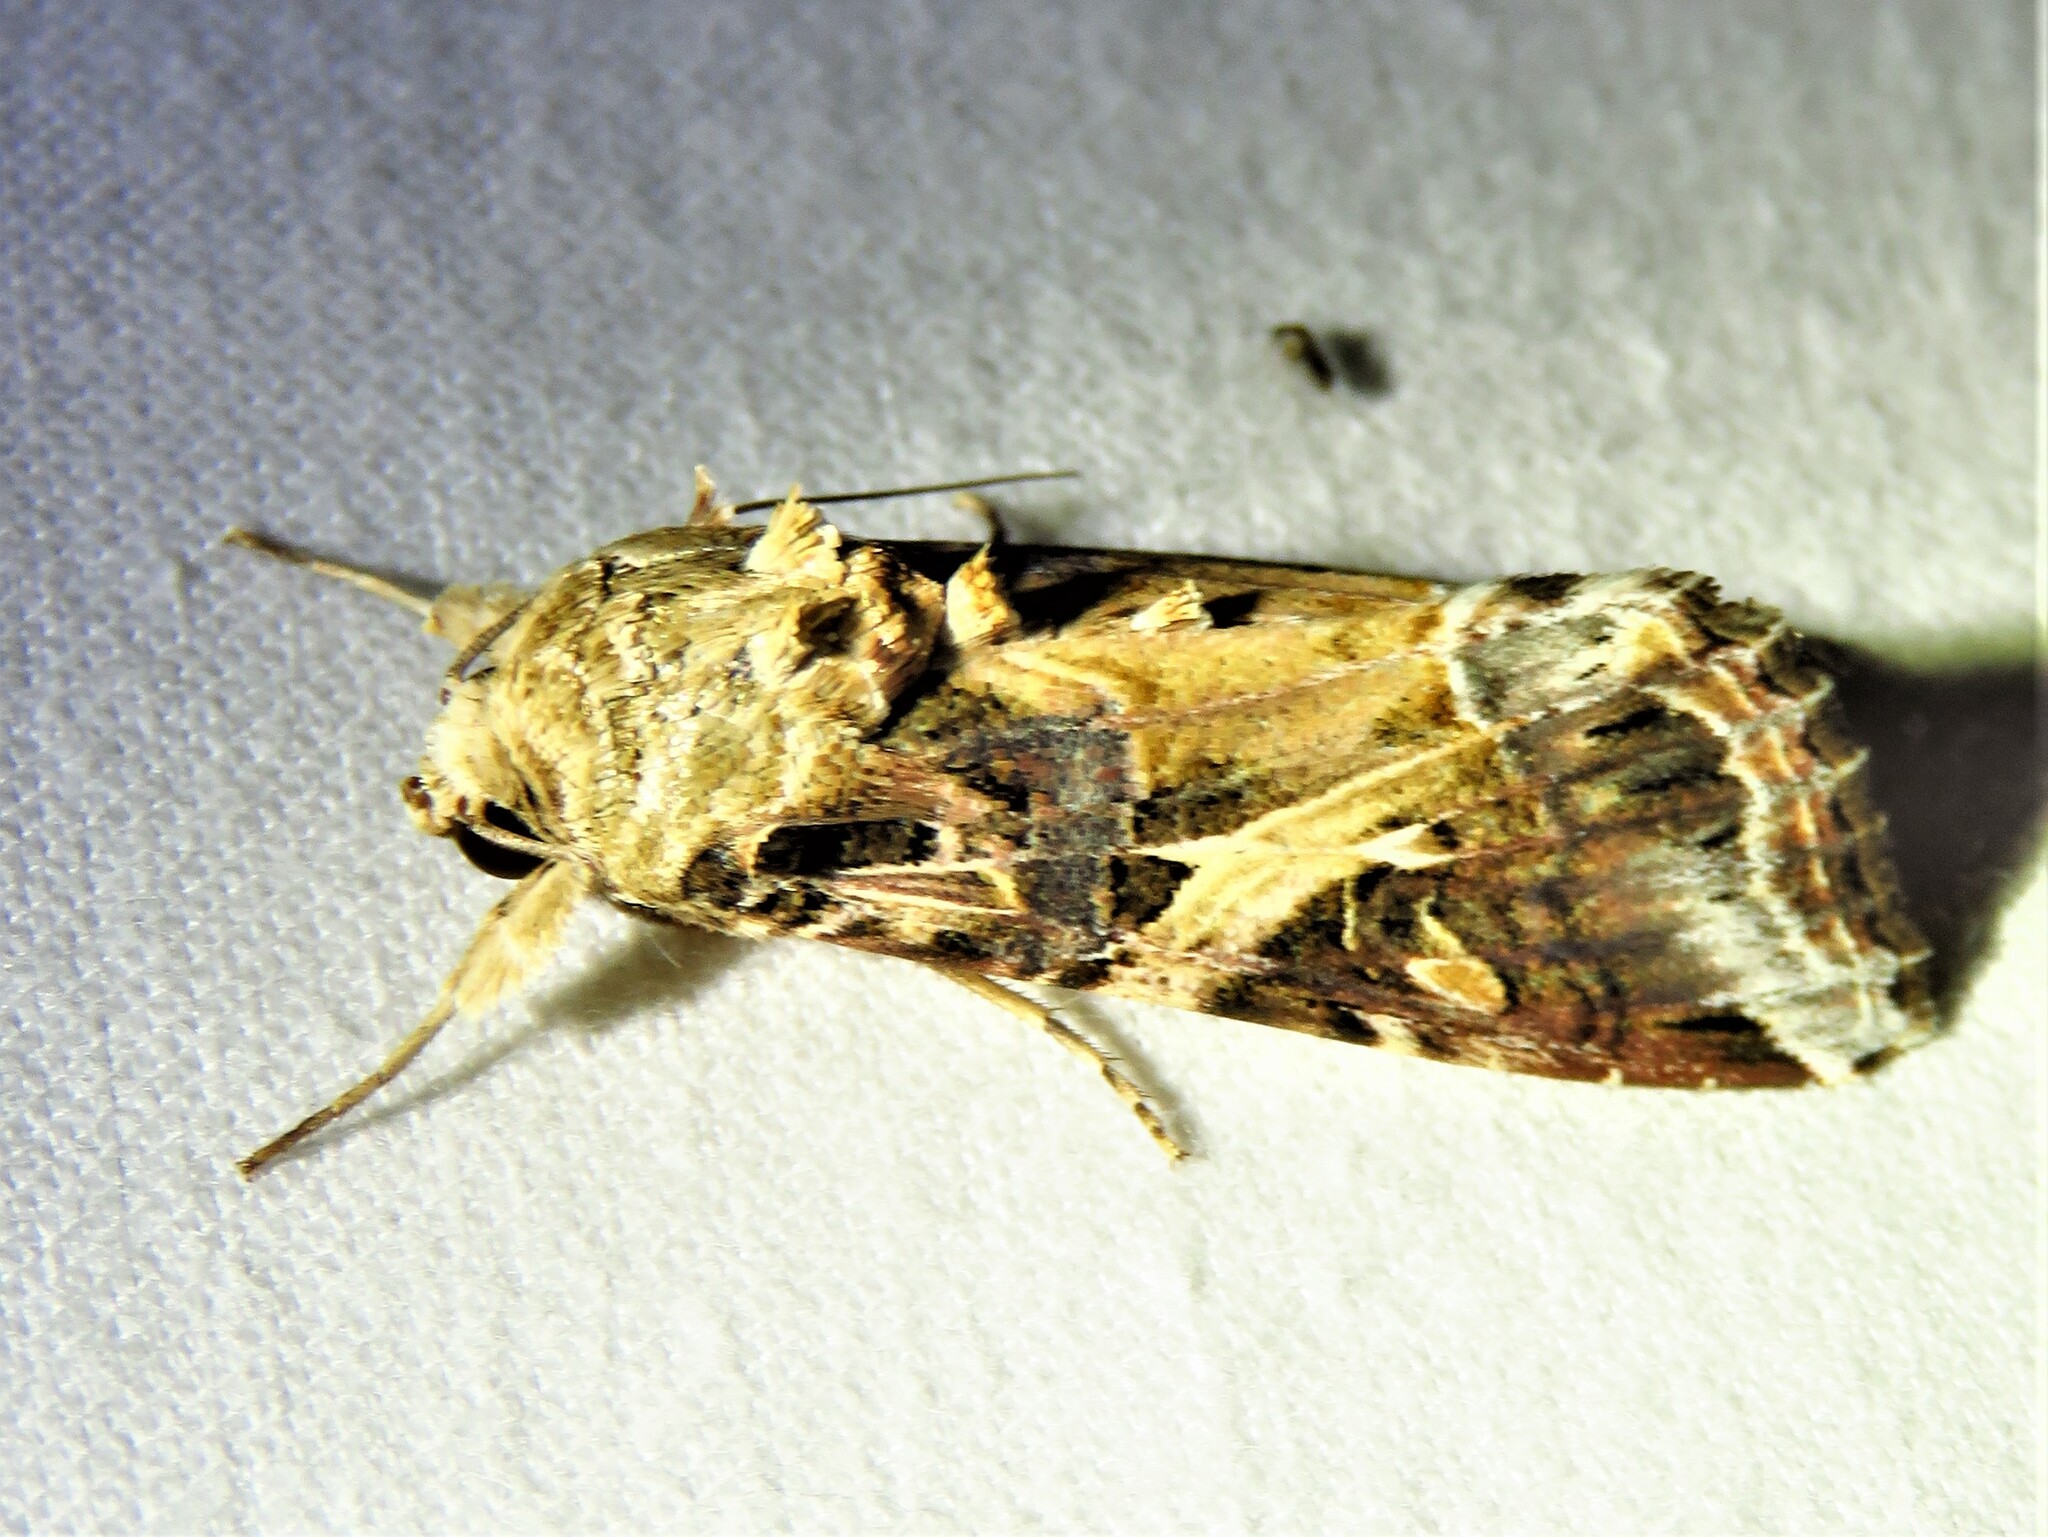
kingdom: Animalia
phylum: Arthropoda
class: Insecta
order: Lepidoptera
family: Noctuidae
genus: Spodoptera
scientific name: Spodoptera ornithogalli
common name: Yellow-striped armyworm
